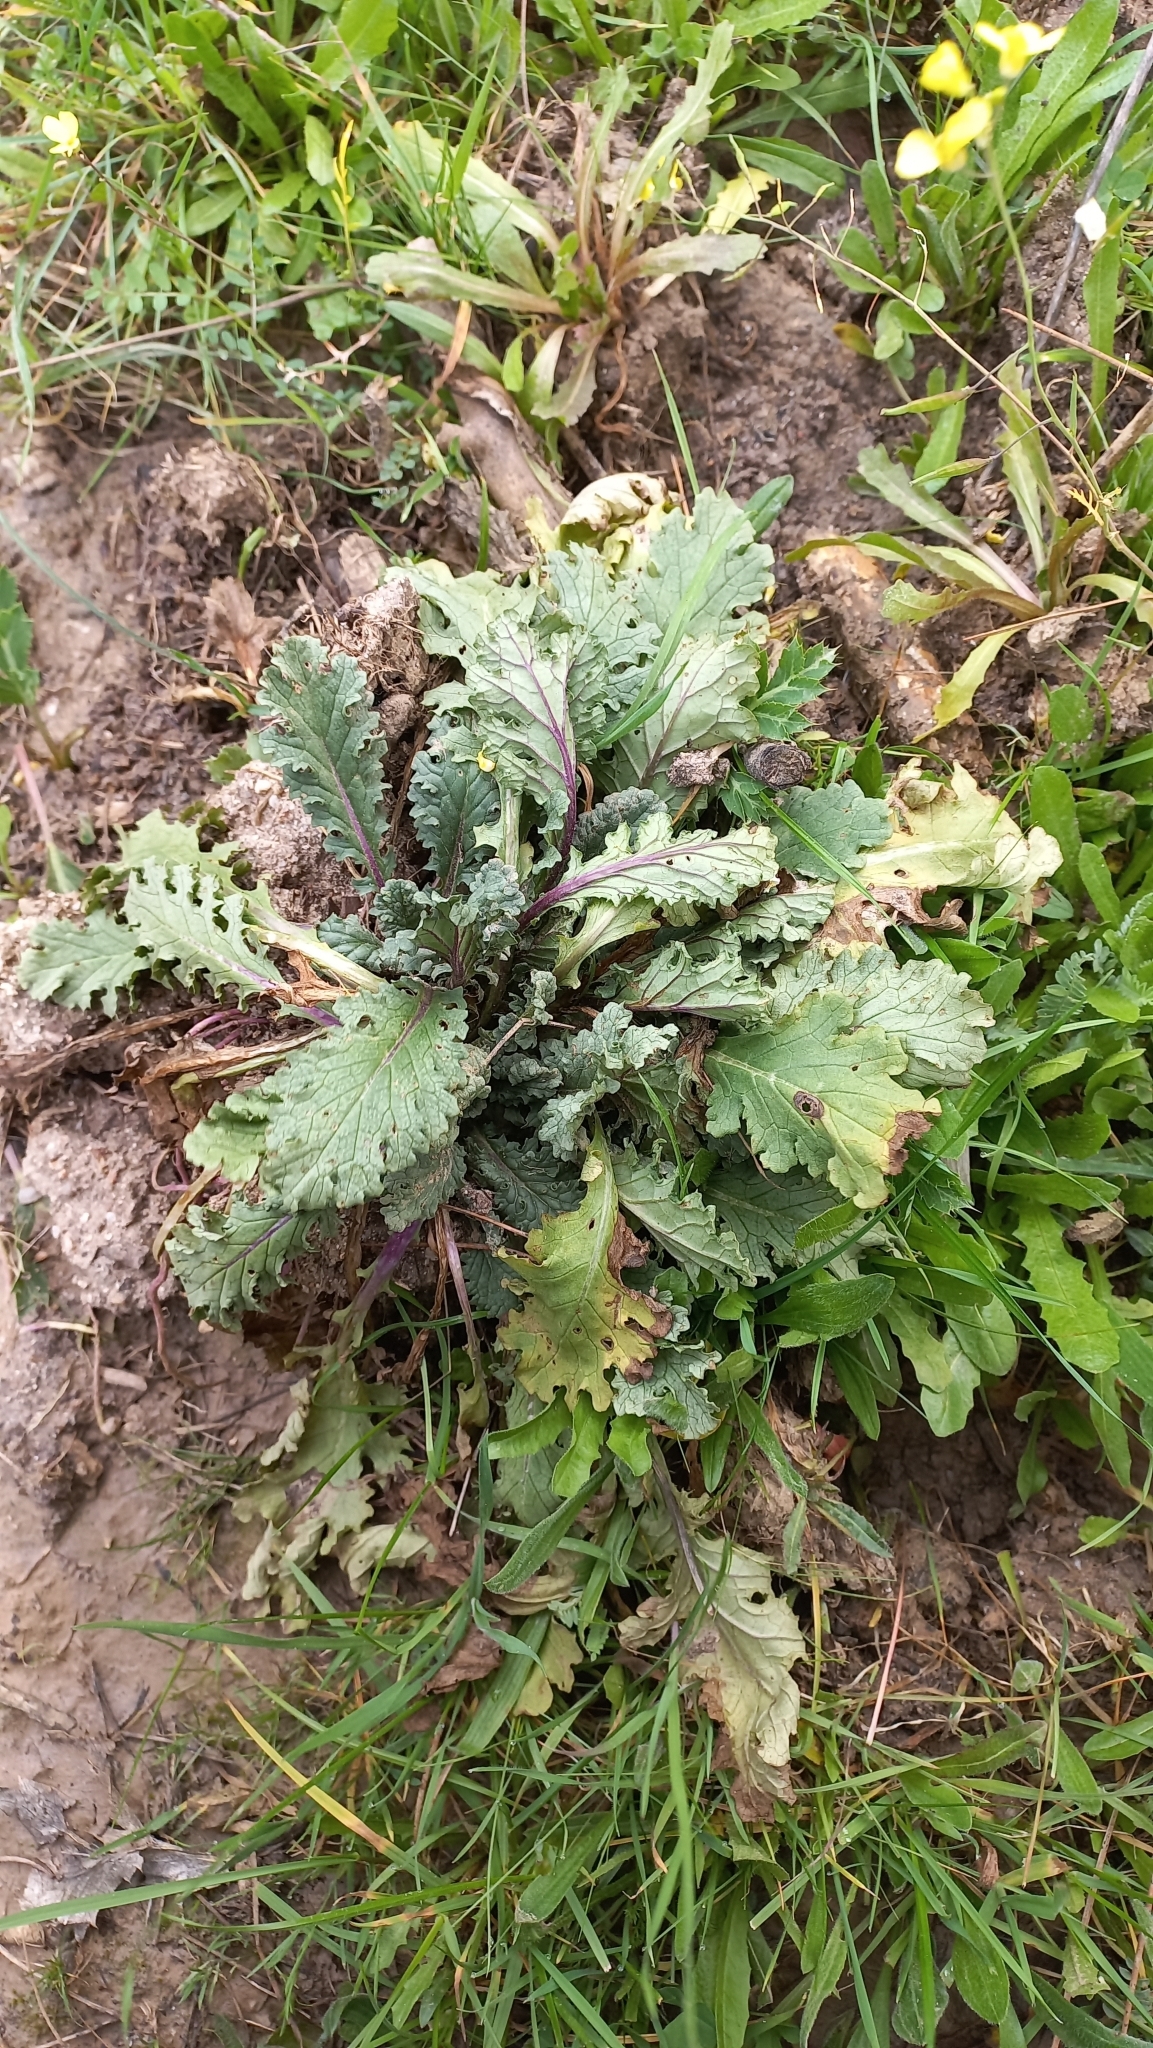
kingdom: Plantae
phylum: Tracheophyta
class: Magnoliopsida
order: Asterales
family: Asteraceae
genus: Jacobaea
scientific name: Jacobaea vulgaris
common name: Stinking willie
